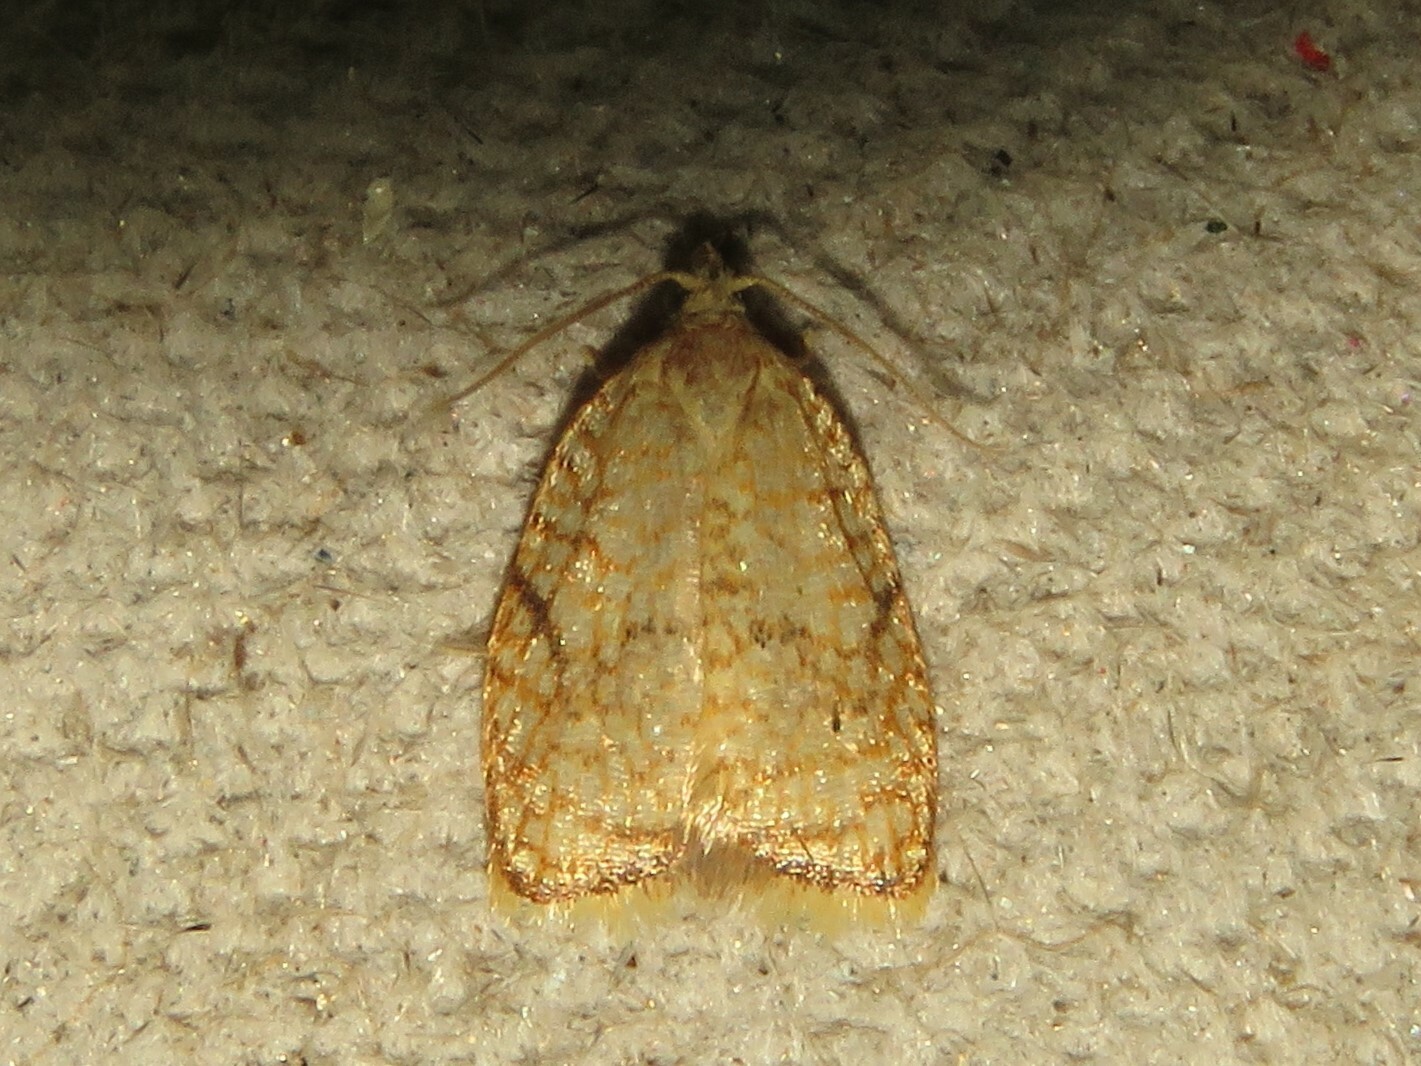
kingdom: Animalia
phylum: Arthropoda
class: Insecta
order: Lepidoptera
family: Tortricidae
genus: Acleris
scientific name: Acleris forsskaleana
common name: Maple button
